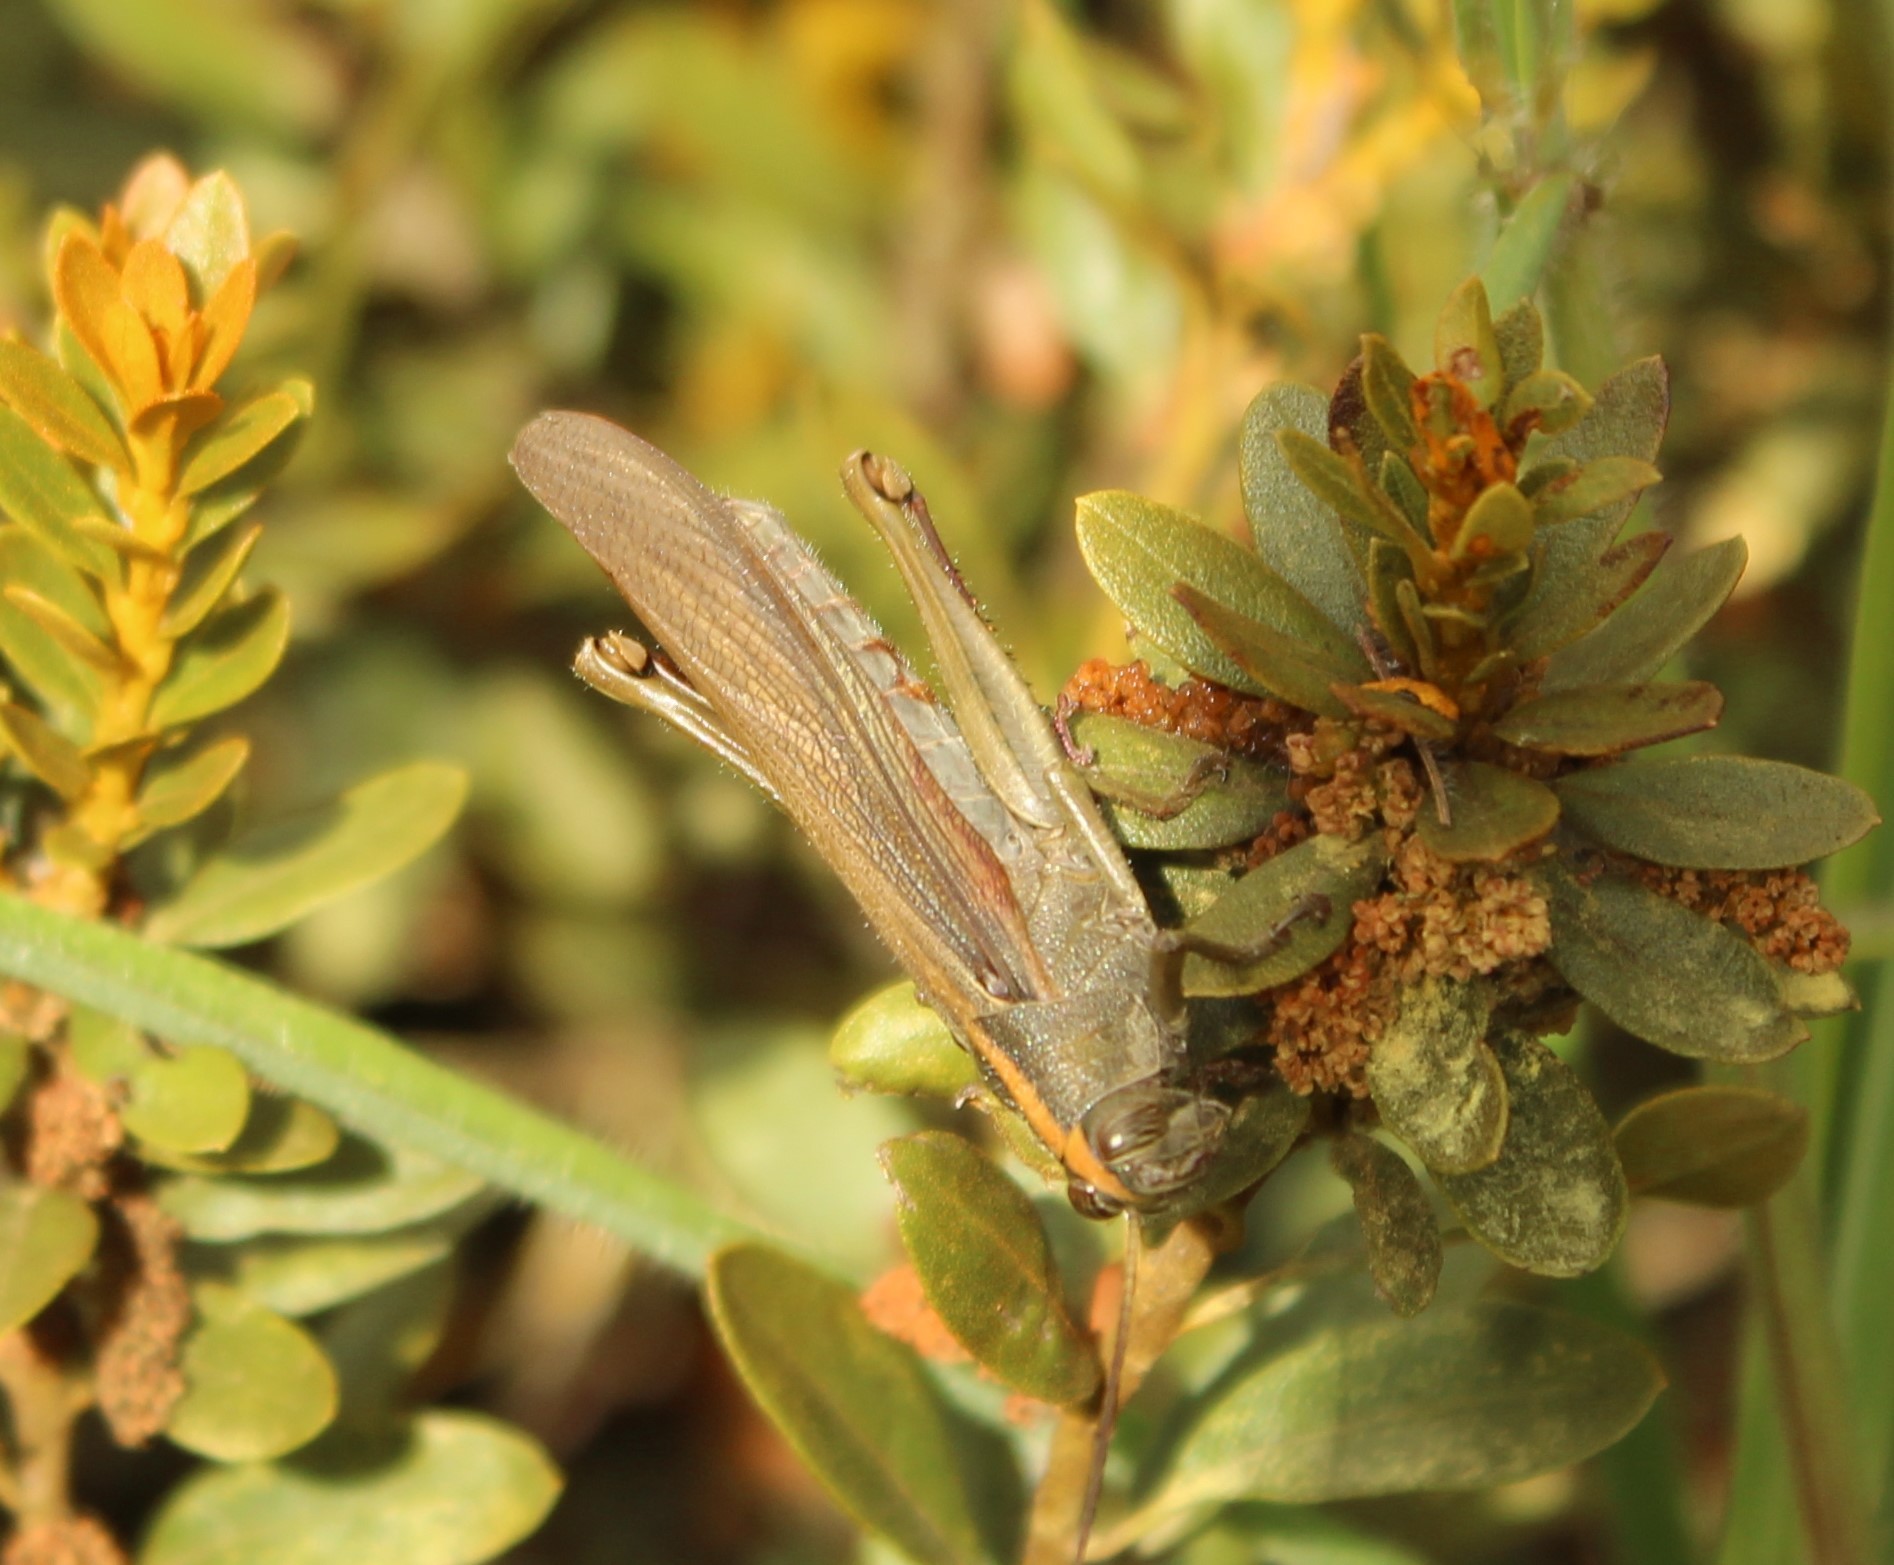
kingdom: Animalia
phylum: Arthropoda
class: Insecta
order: Orthoptera
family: Acrididae
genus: Schistocerca
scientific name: Schistocerca nitens
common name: Vagrant grasshopper
